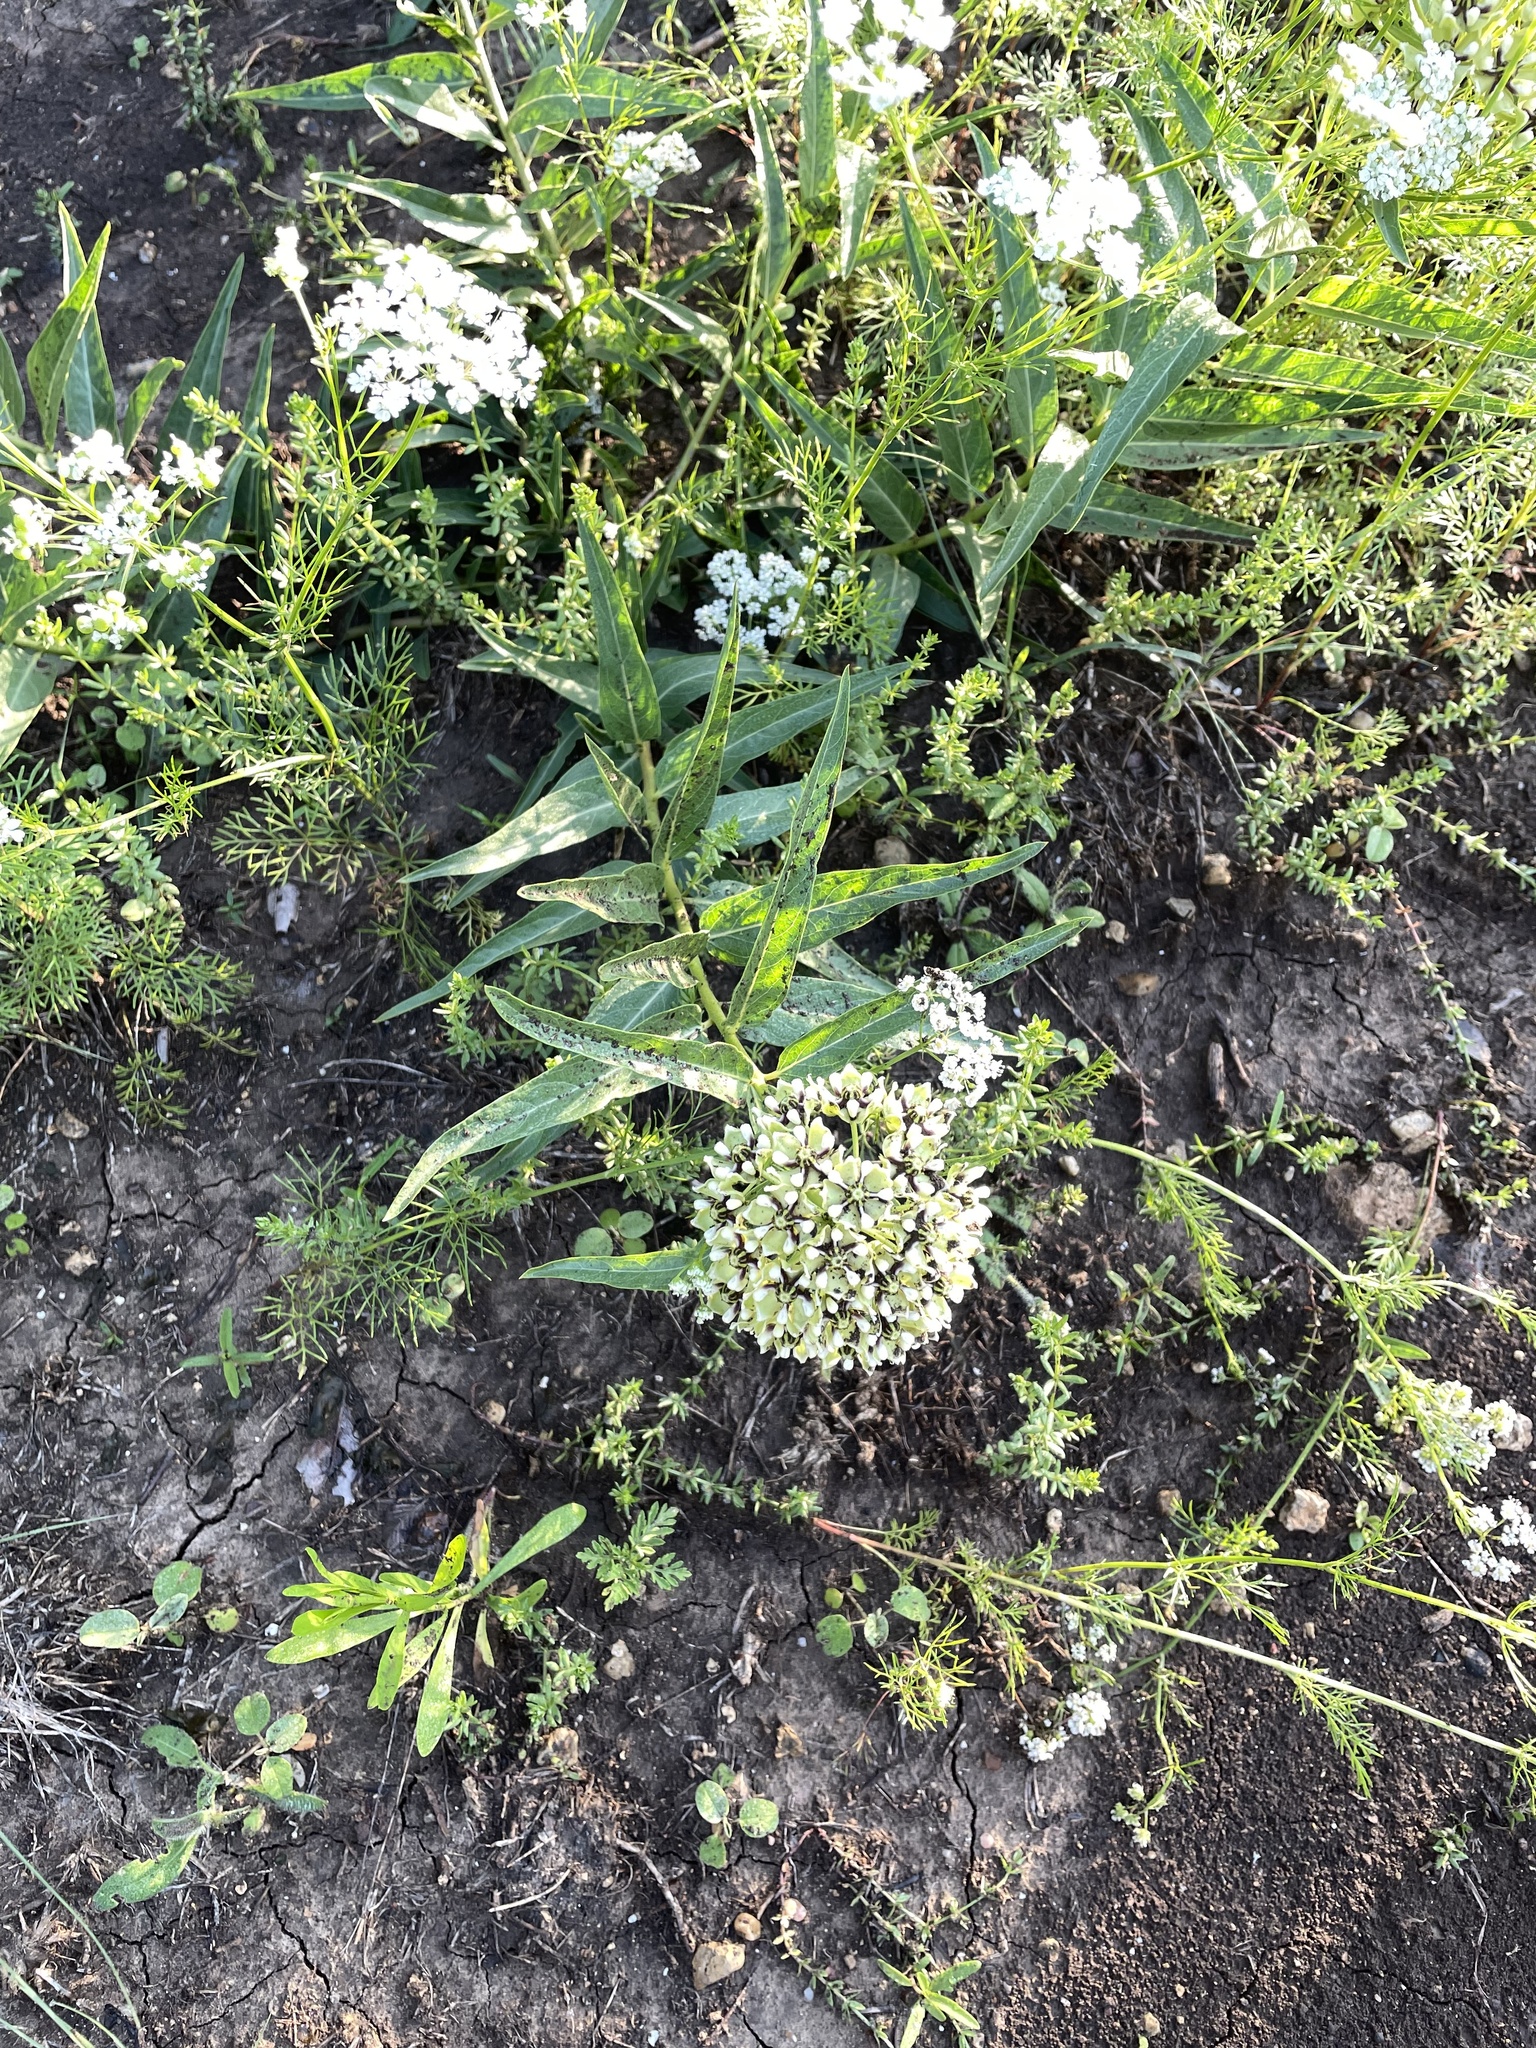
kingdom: Plantae
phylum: Tracheophyta
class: Magnoliopsida
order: Gentianales
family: Apocynaceae
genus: Asclepias
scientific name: Asclepias asperula
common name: Antelope horns
